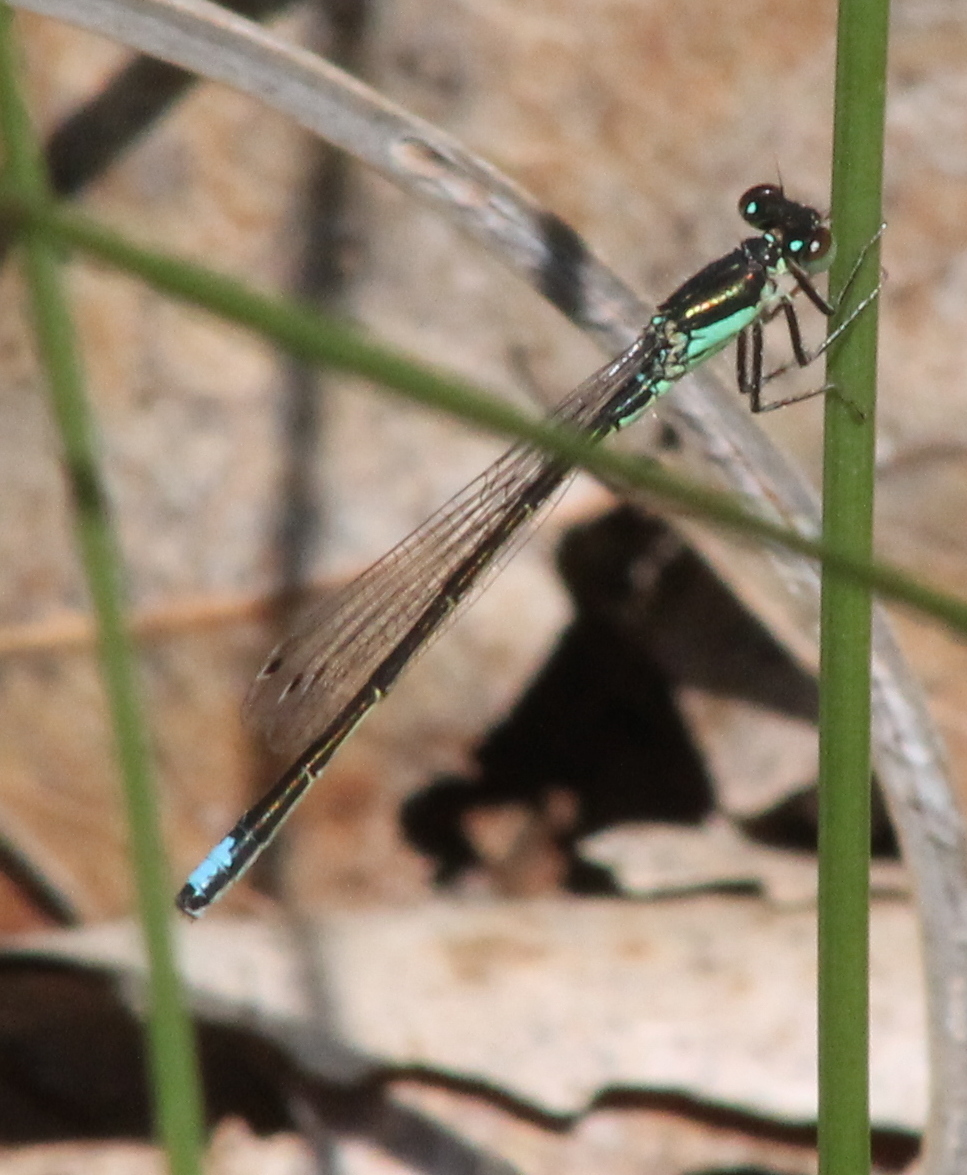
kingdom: Animalia
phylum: Arthropoda
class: Insecta
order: Odonata
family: Coenagrionidae
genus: Ischnura
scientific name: Ischnura denticollis
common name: Black-fronted forktail
